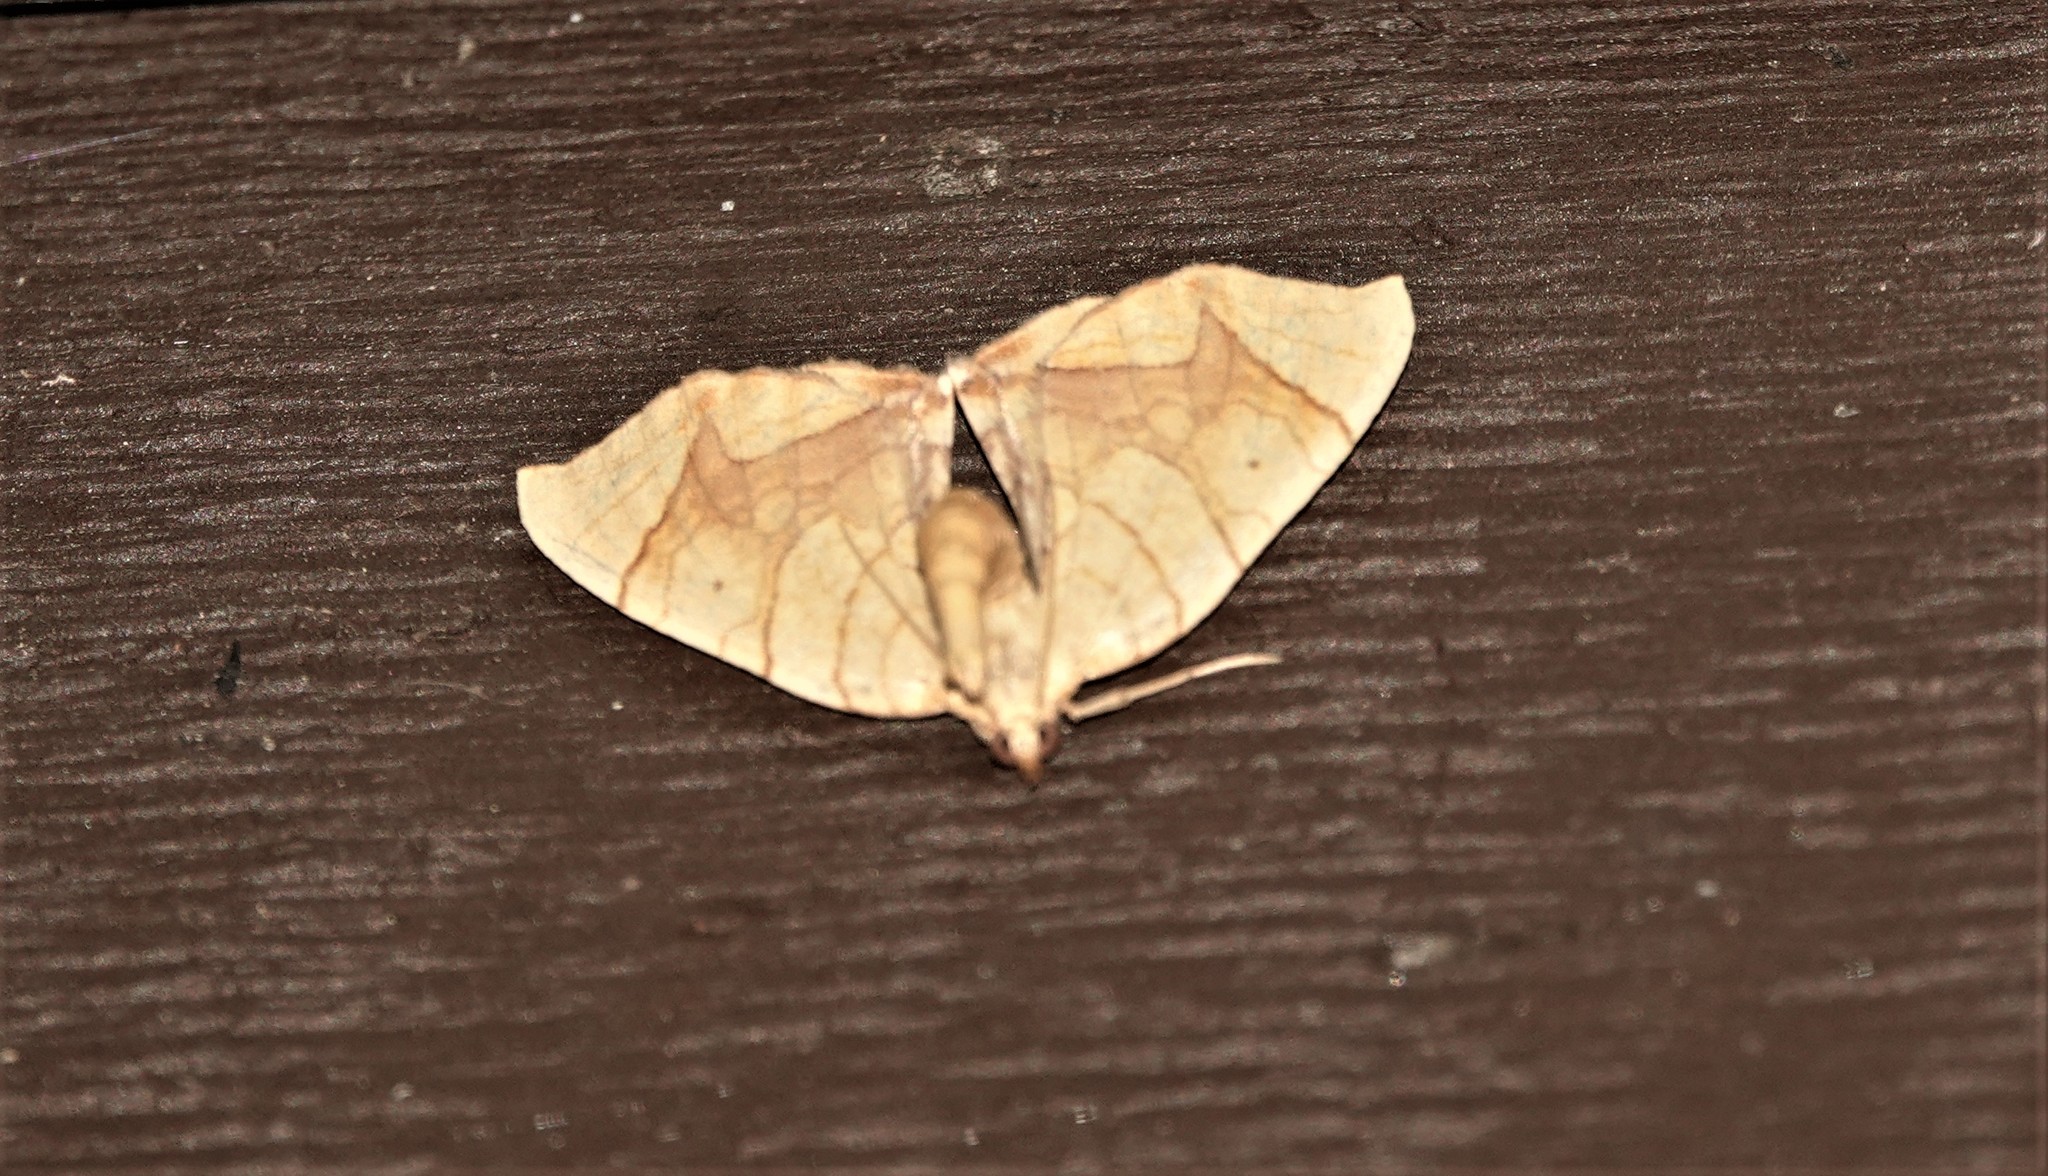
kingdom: Animalia
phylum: Arthropoda
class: Insecta
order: Lepidoptera
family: Geometridae
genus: Eulithis
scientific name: Eulithis
